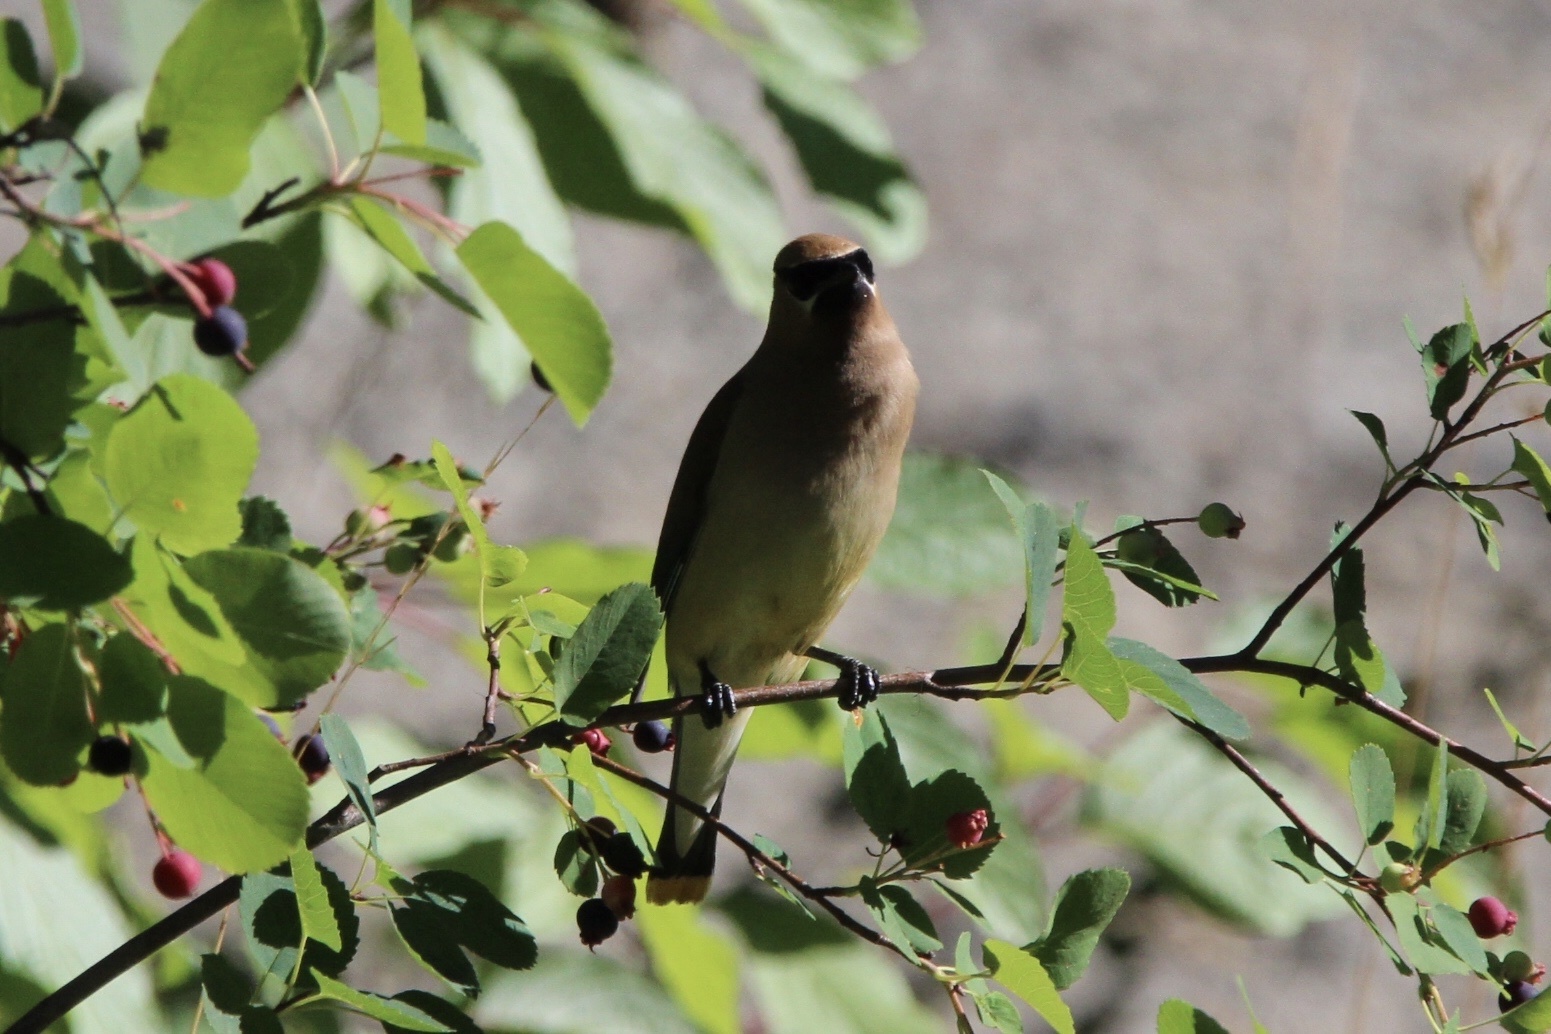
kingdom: Animalia
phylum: Chordata
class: Aves
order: Passeriformes
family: Bombycillidae
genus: Bombycilla
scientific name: Bombycilla cedrorum
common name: Cedar waxwing
